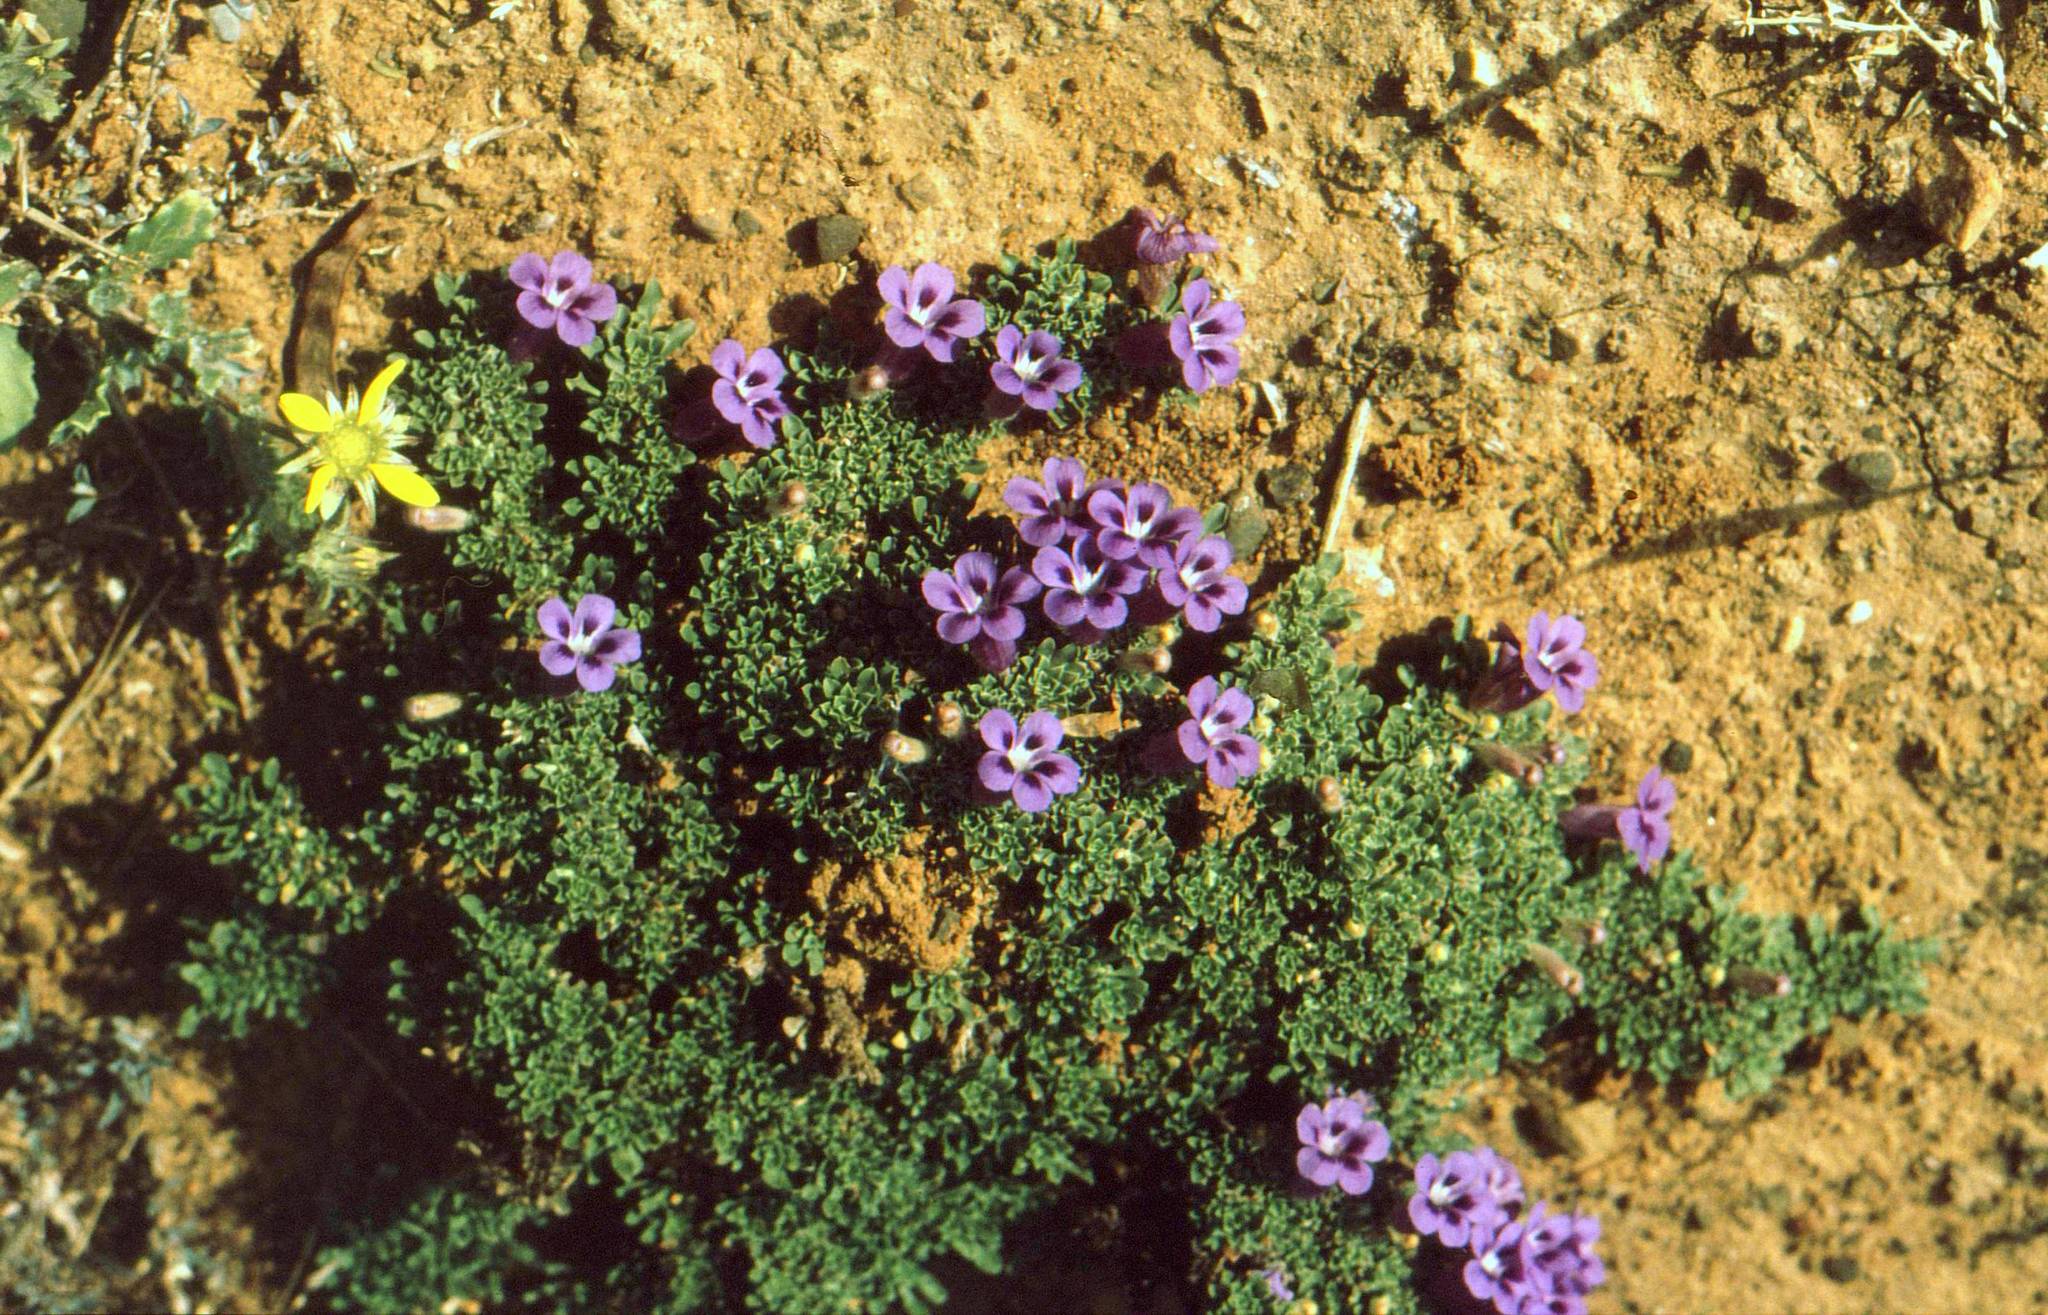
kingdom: Plantae
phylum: Tracheophyta
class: Magnoliopsida
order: Lamiales
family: Scrophulariaceae
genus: Aptosimum
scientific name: Aptosimum procumbens
